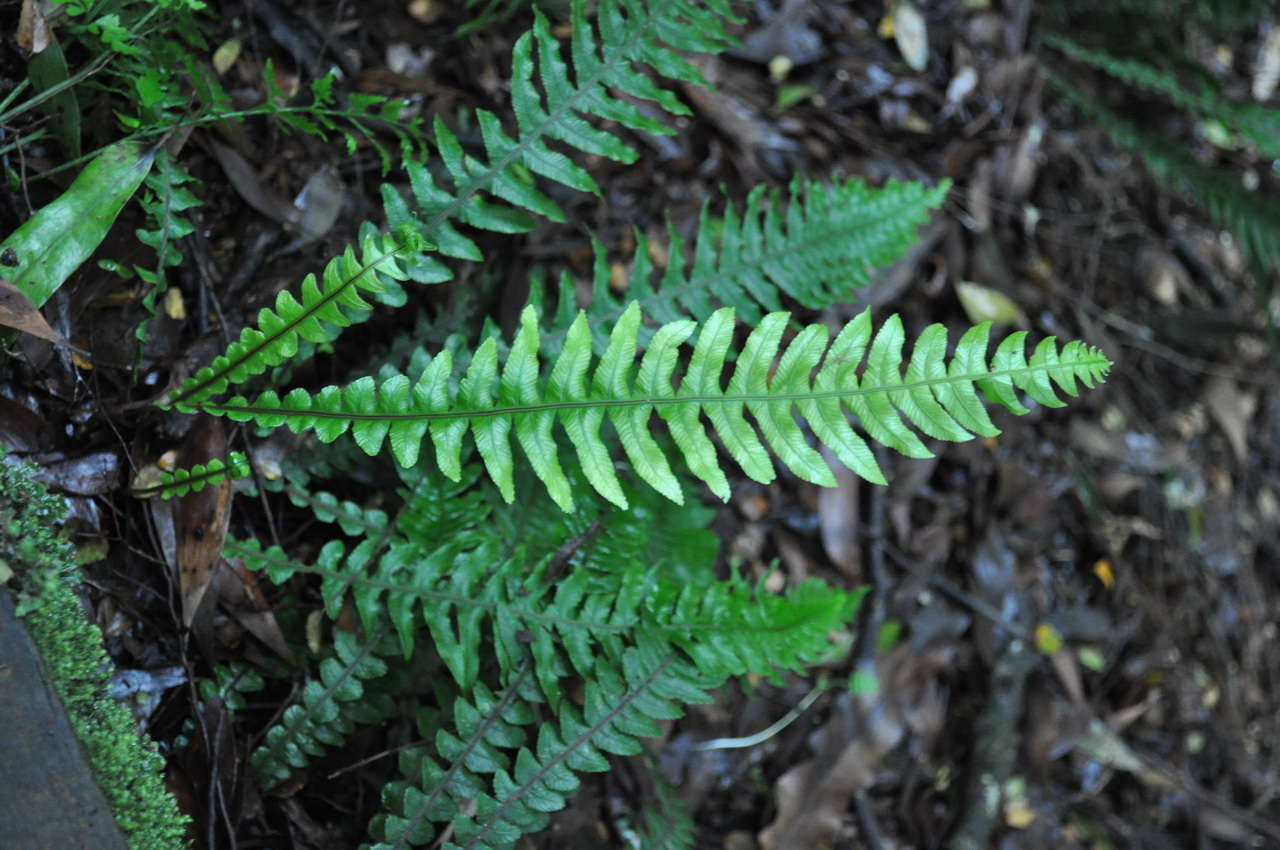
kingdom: Plantae
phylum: Tracheophyta
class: Polypodiopsida
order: Polypodiales
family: Blechnaceae
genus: Austroblechnum
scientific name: Austroblechnum lanceolatum
